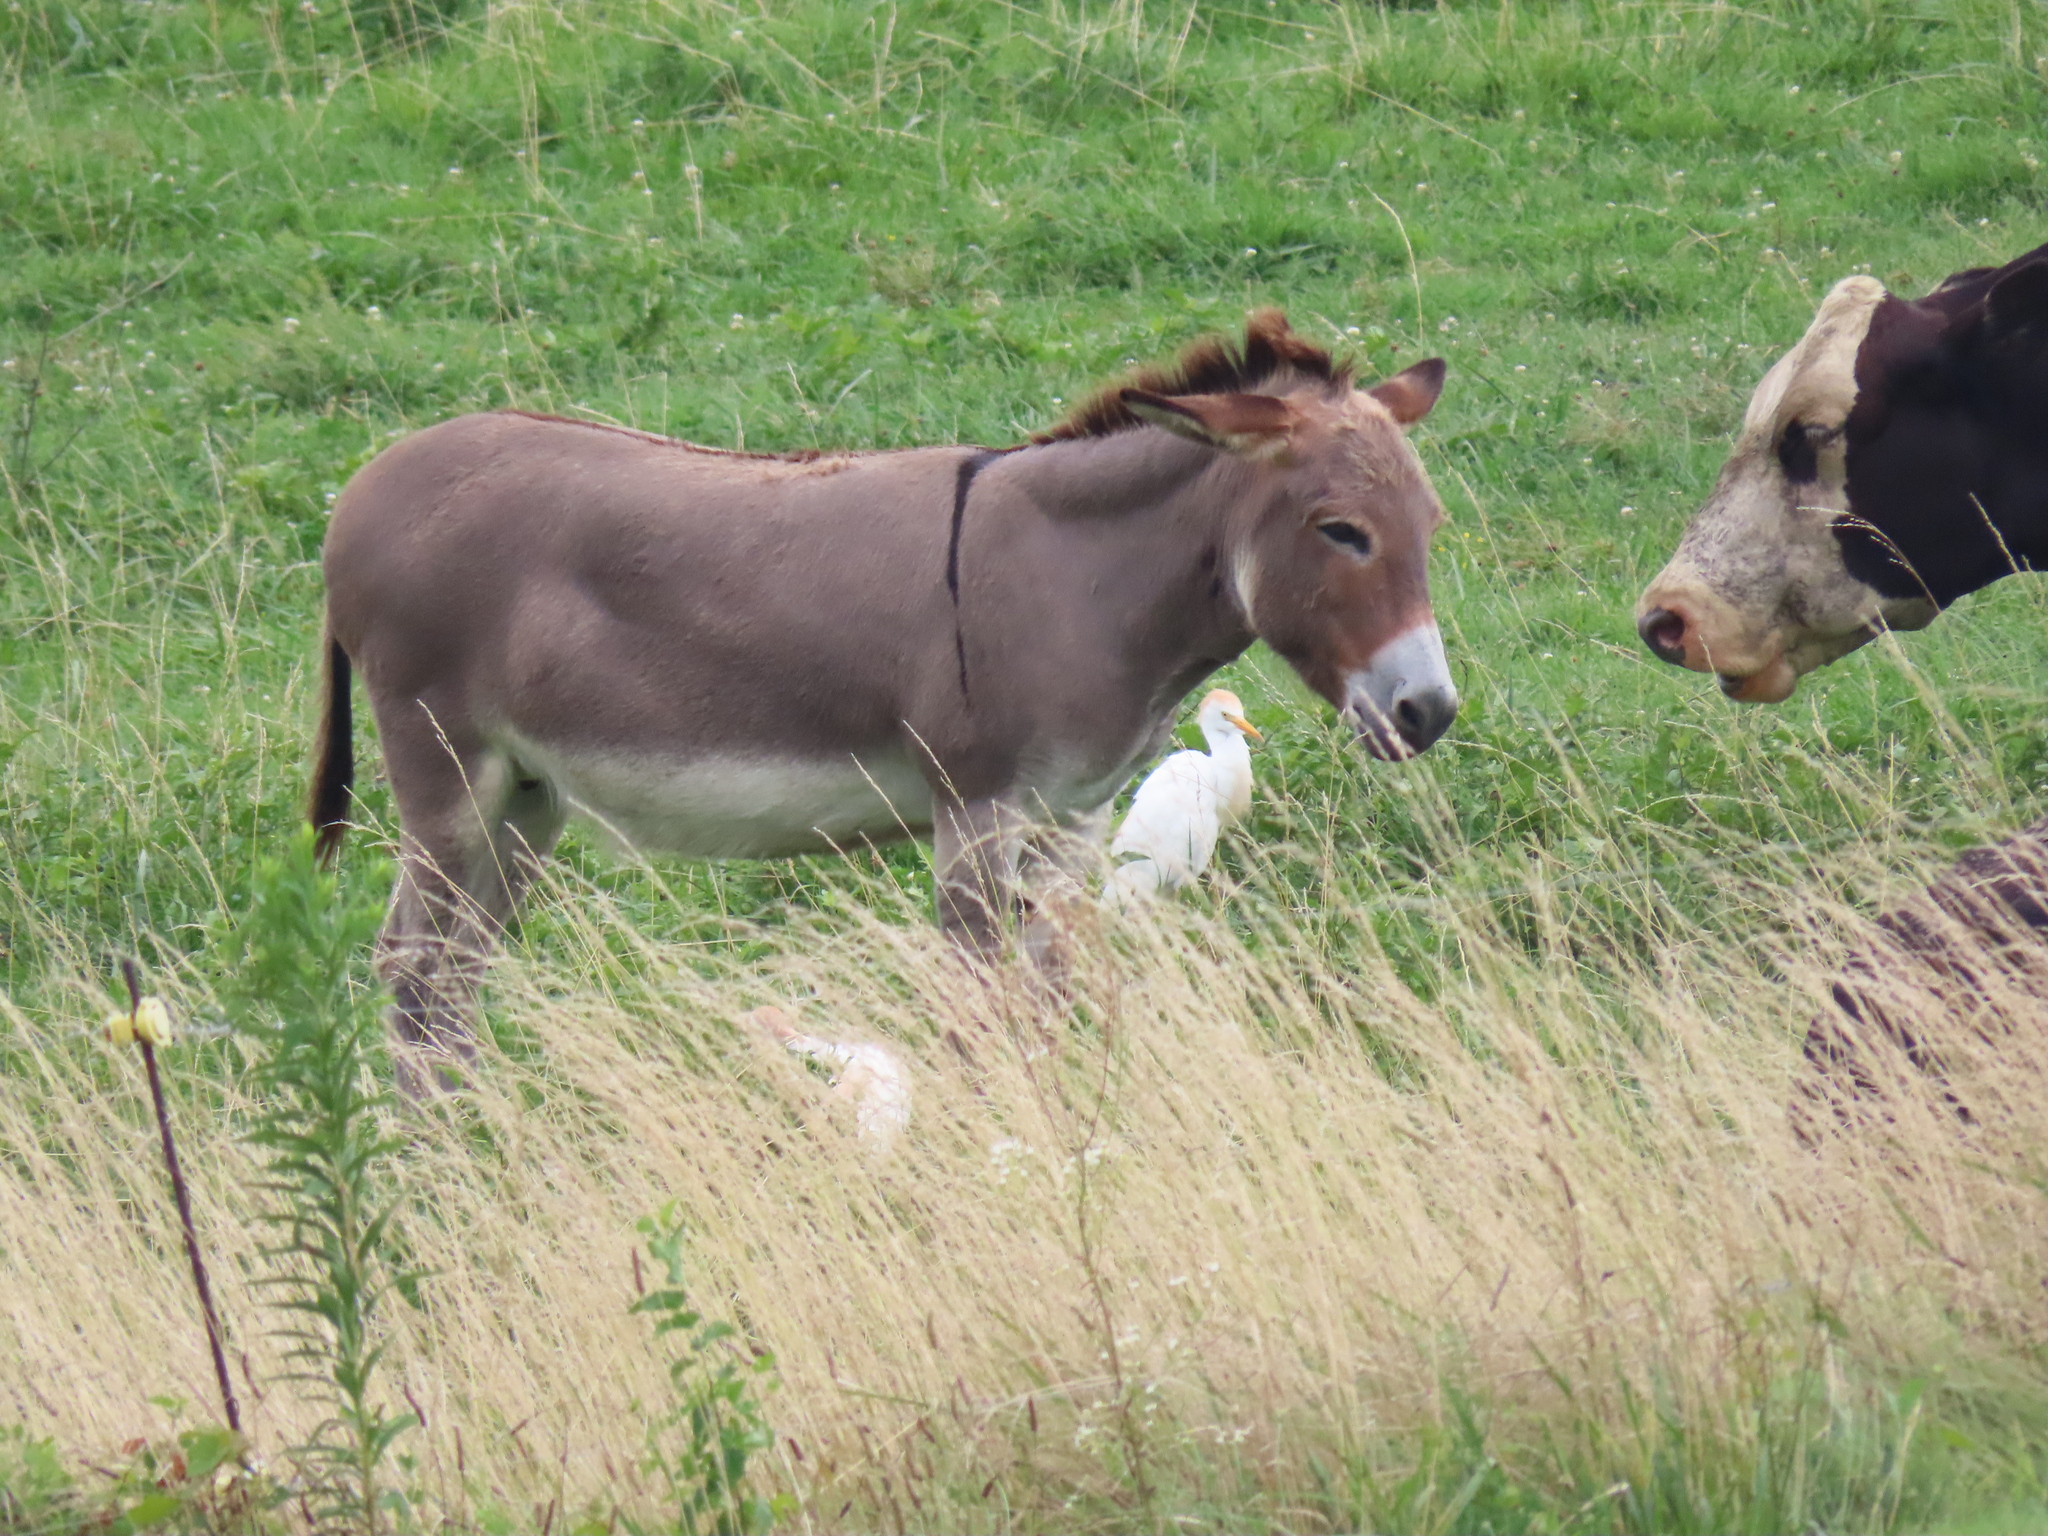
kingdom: Animalia
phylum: Chordata
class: Aves
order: Pelecaniformes
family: Ardeidae
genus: Bubulcus
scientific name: Bubulcus ibis
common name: Cattle egret
